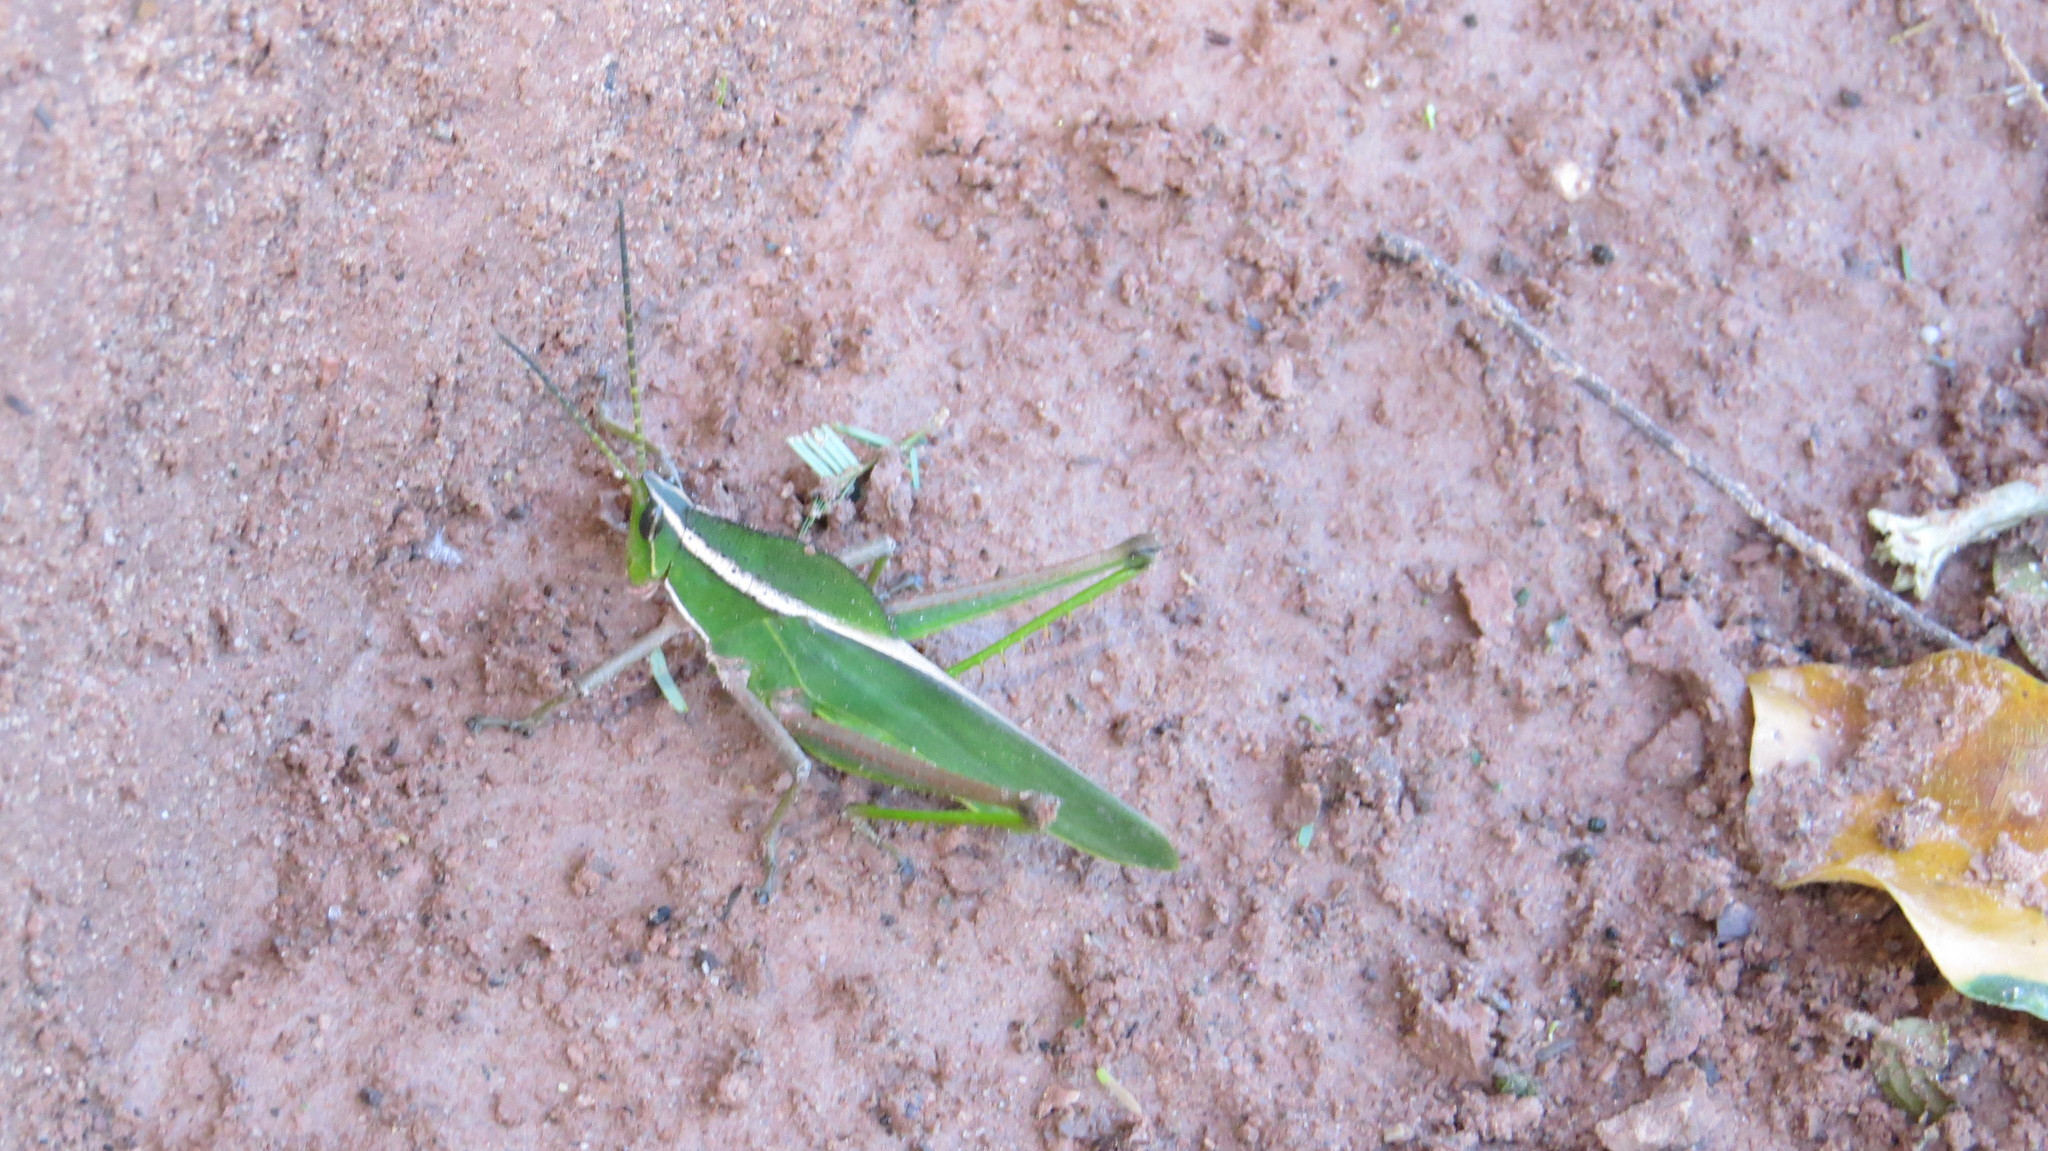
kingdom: Animalia
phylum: Arthropoda
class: Insecta
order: Orthoptera
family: Romaleidae
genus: Prionolopha
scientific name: Prionolopha serrata
